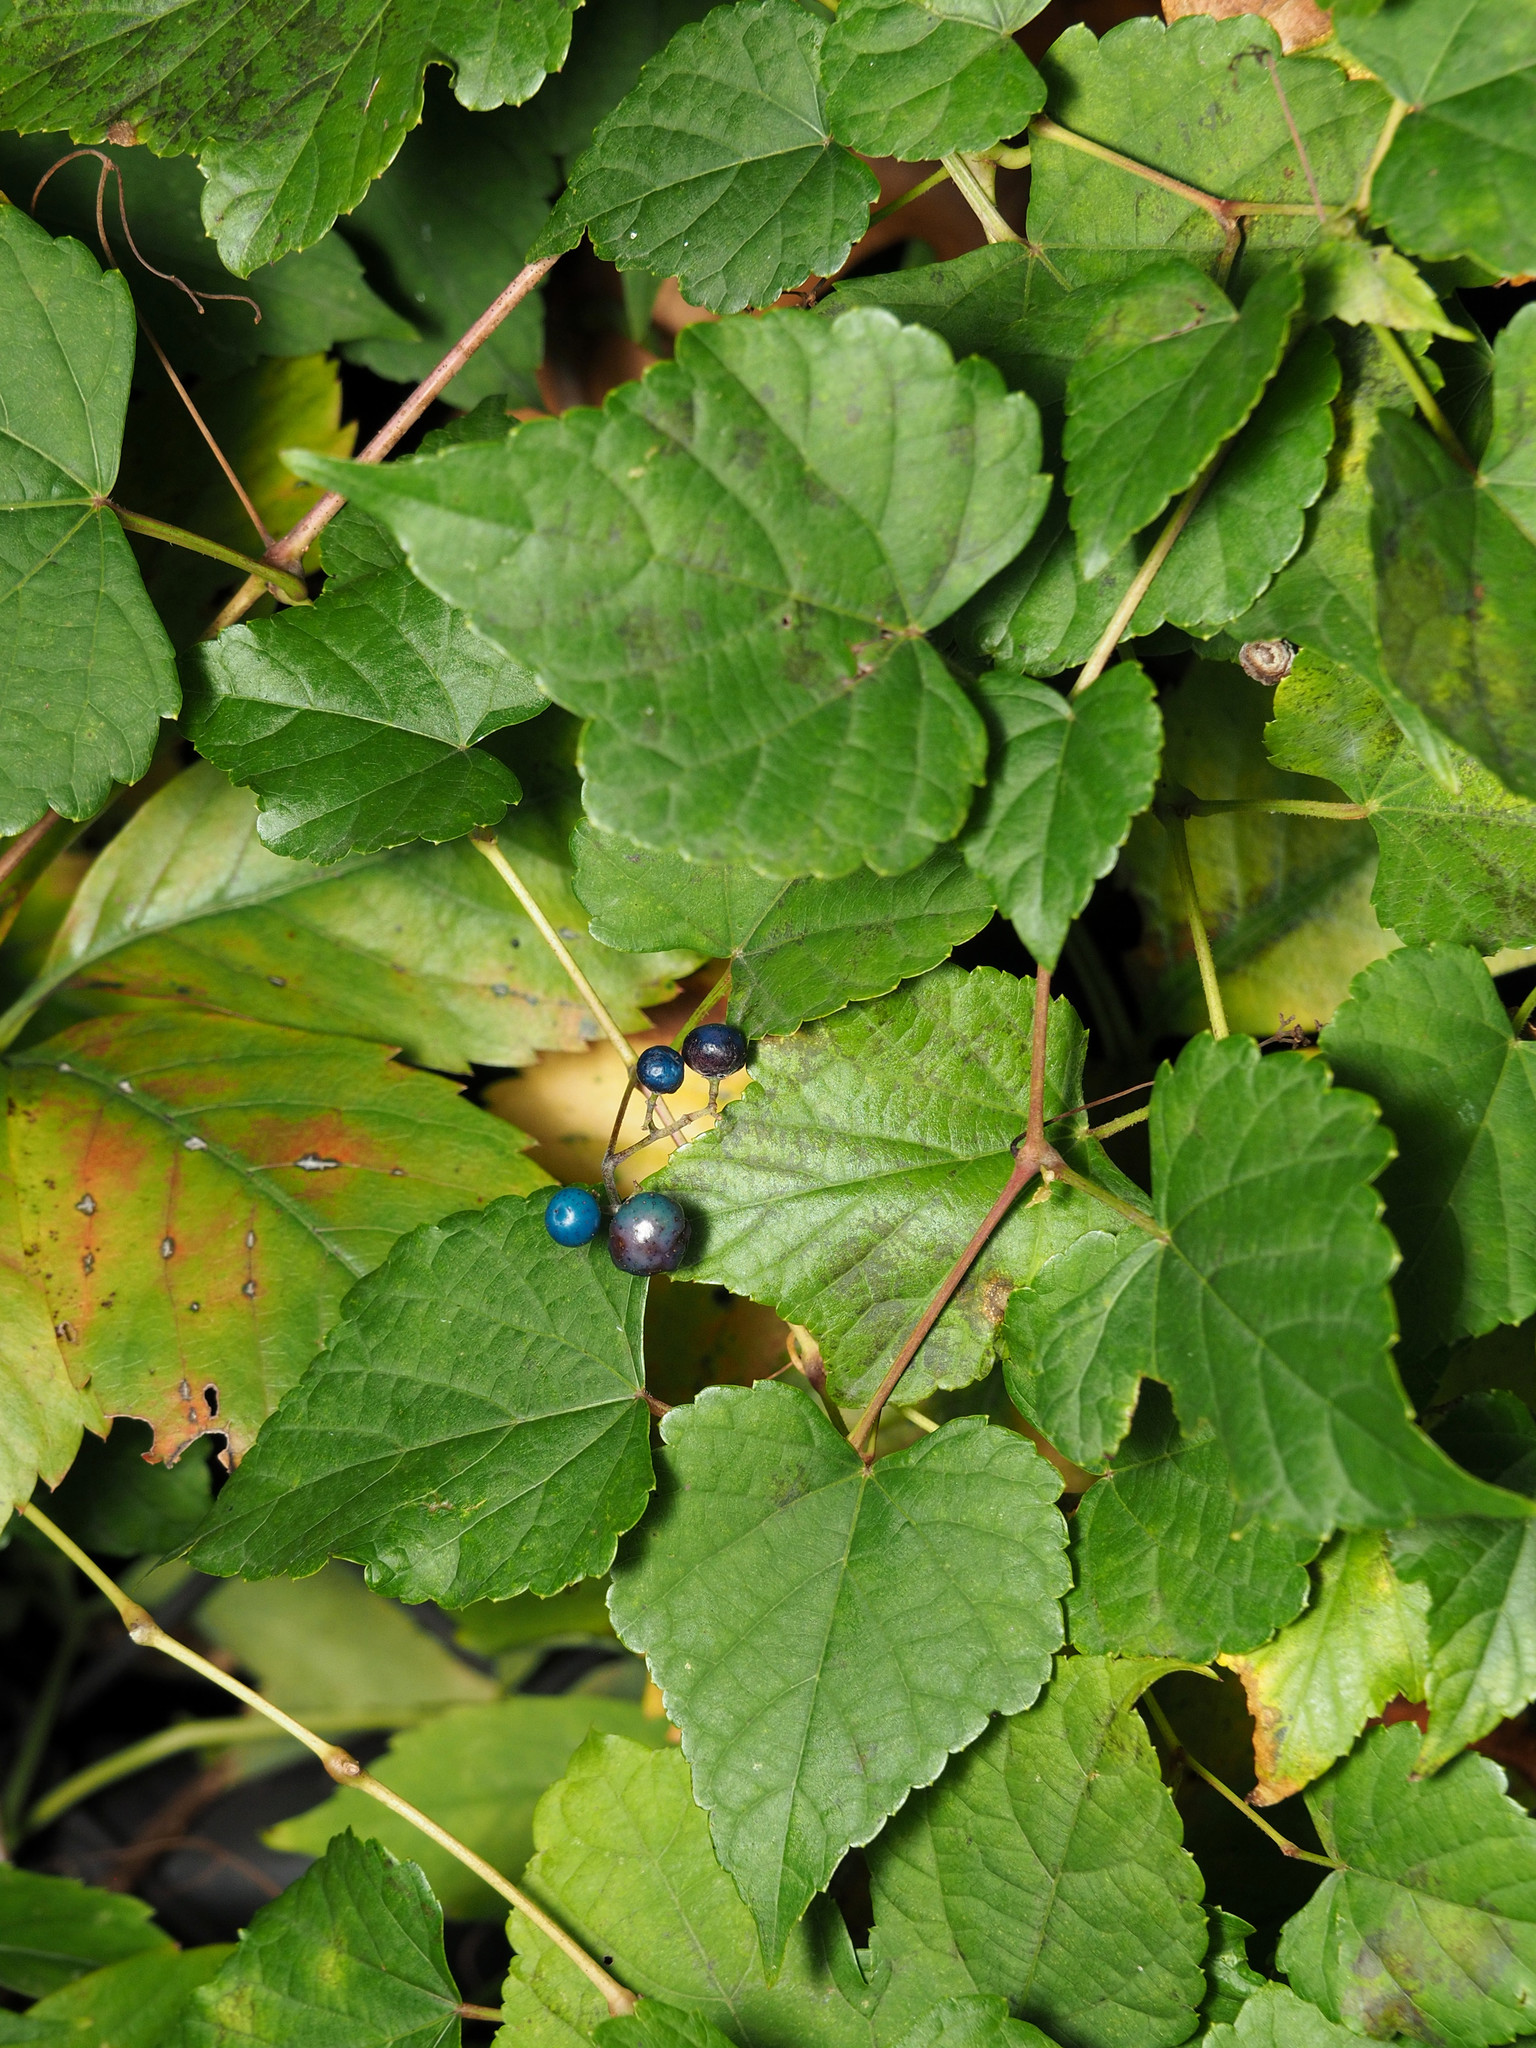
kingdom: Plantae
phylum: Tracheophyta
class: Magnoliopsida
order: Vitales
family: Vitaceae
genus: Ampelopsis
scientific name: Ampelopsis glandulosa
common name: Amur peppervine
